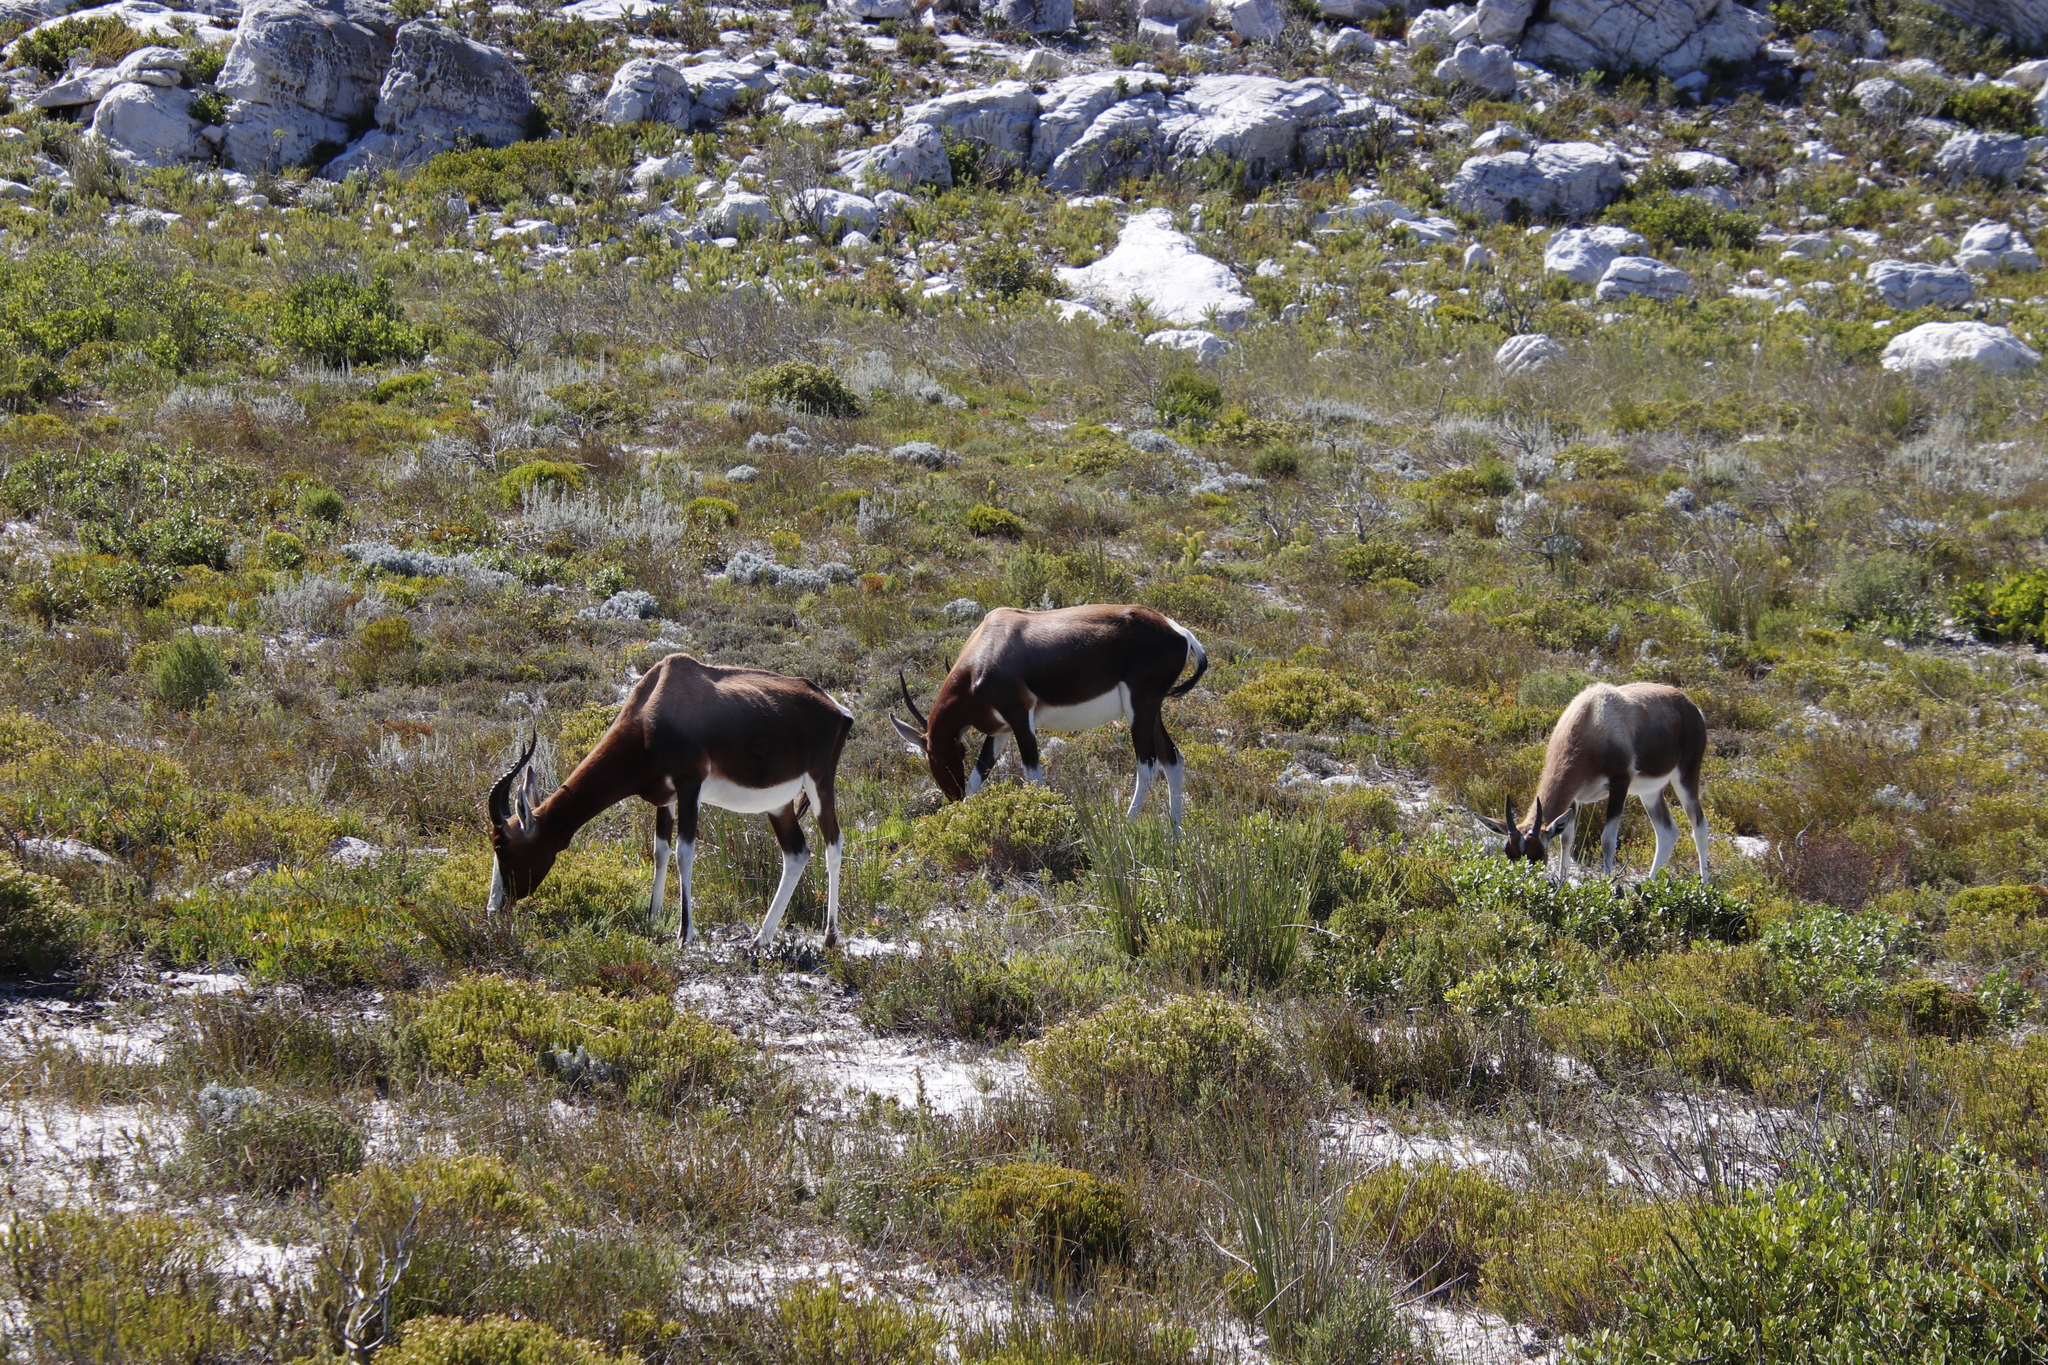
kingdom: Animalia
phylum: Chordata
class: Mammalia
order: Artiodactyla
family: Bovidae
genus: Damaliscus
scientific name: Damaliscus pygargus
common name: Bontebok
